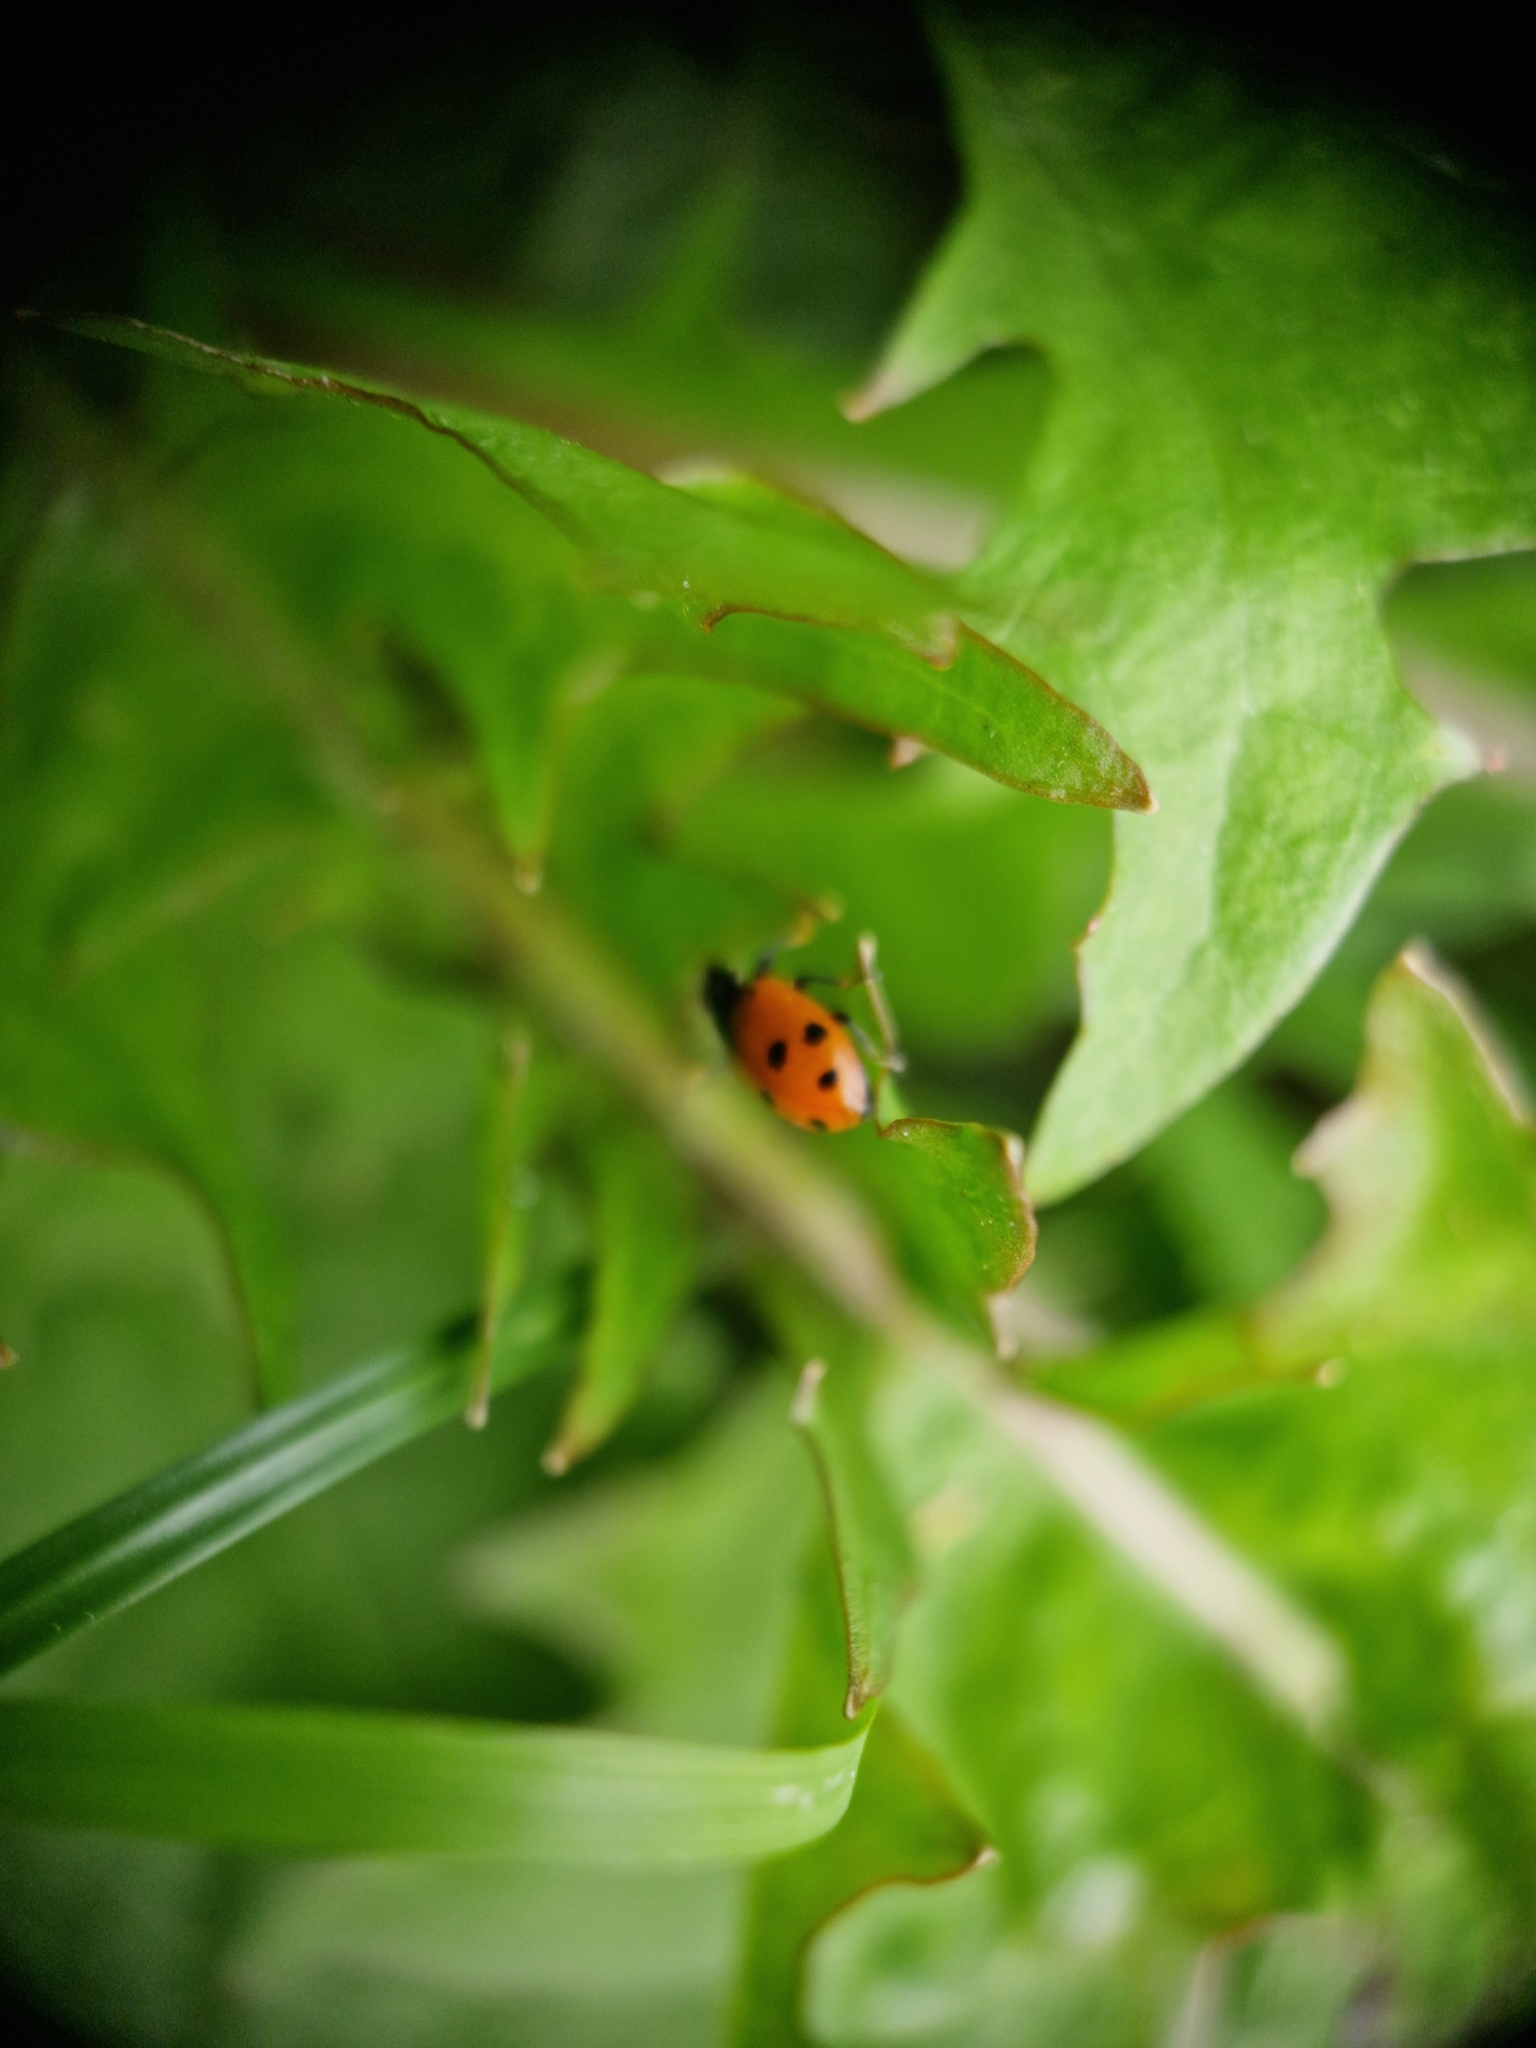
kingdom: Animalia
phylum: Arthropoda
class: Insecta
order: Coleoptera
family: Coccinellidae
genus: Hippodamia
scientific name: Hippodamia variegata
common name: Ladybird beetle
